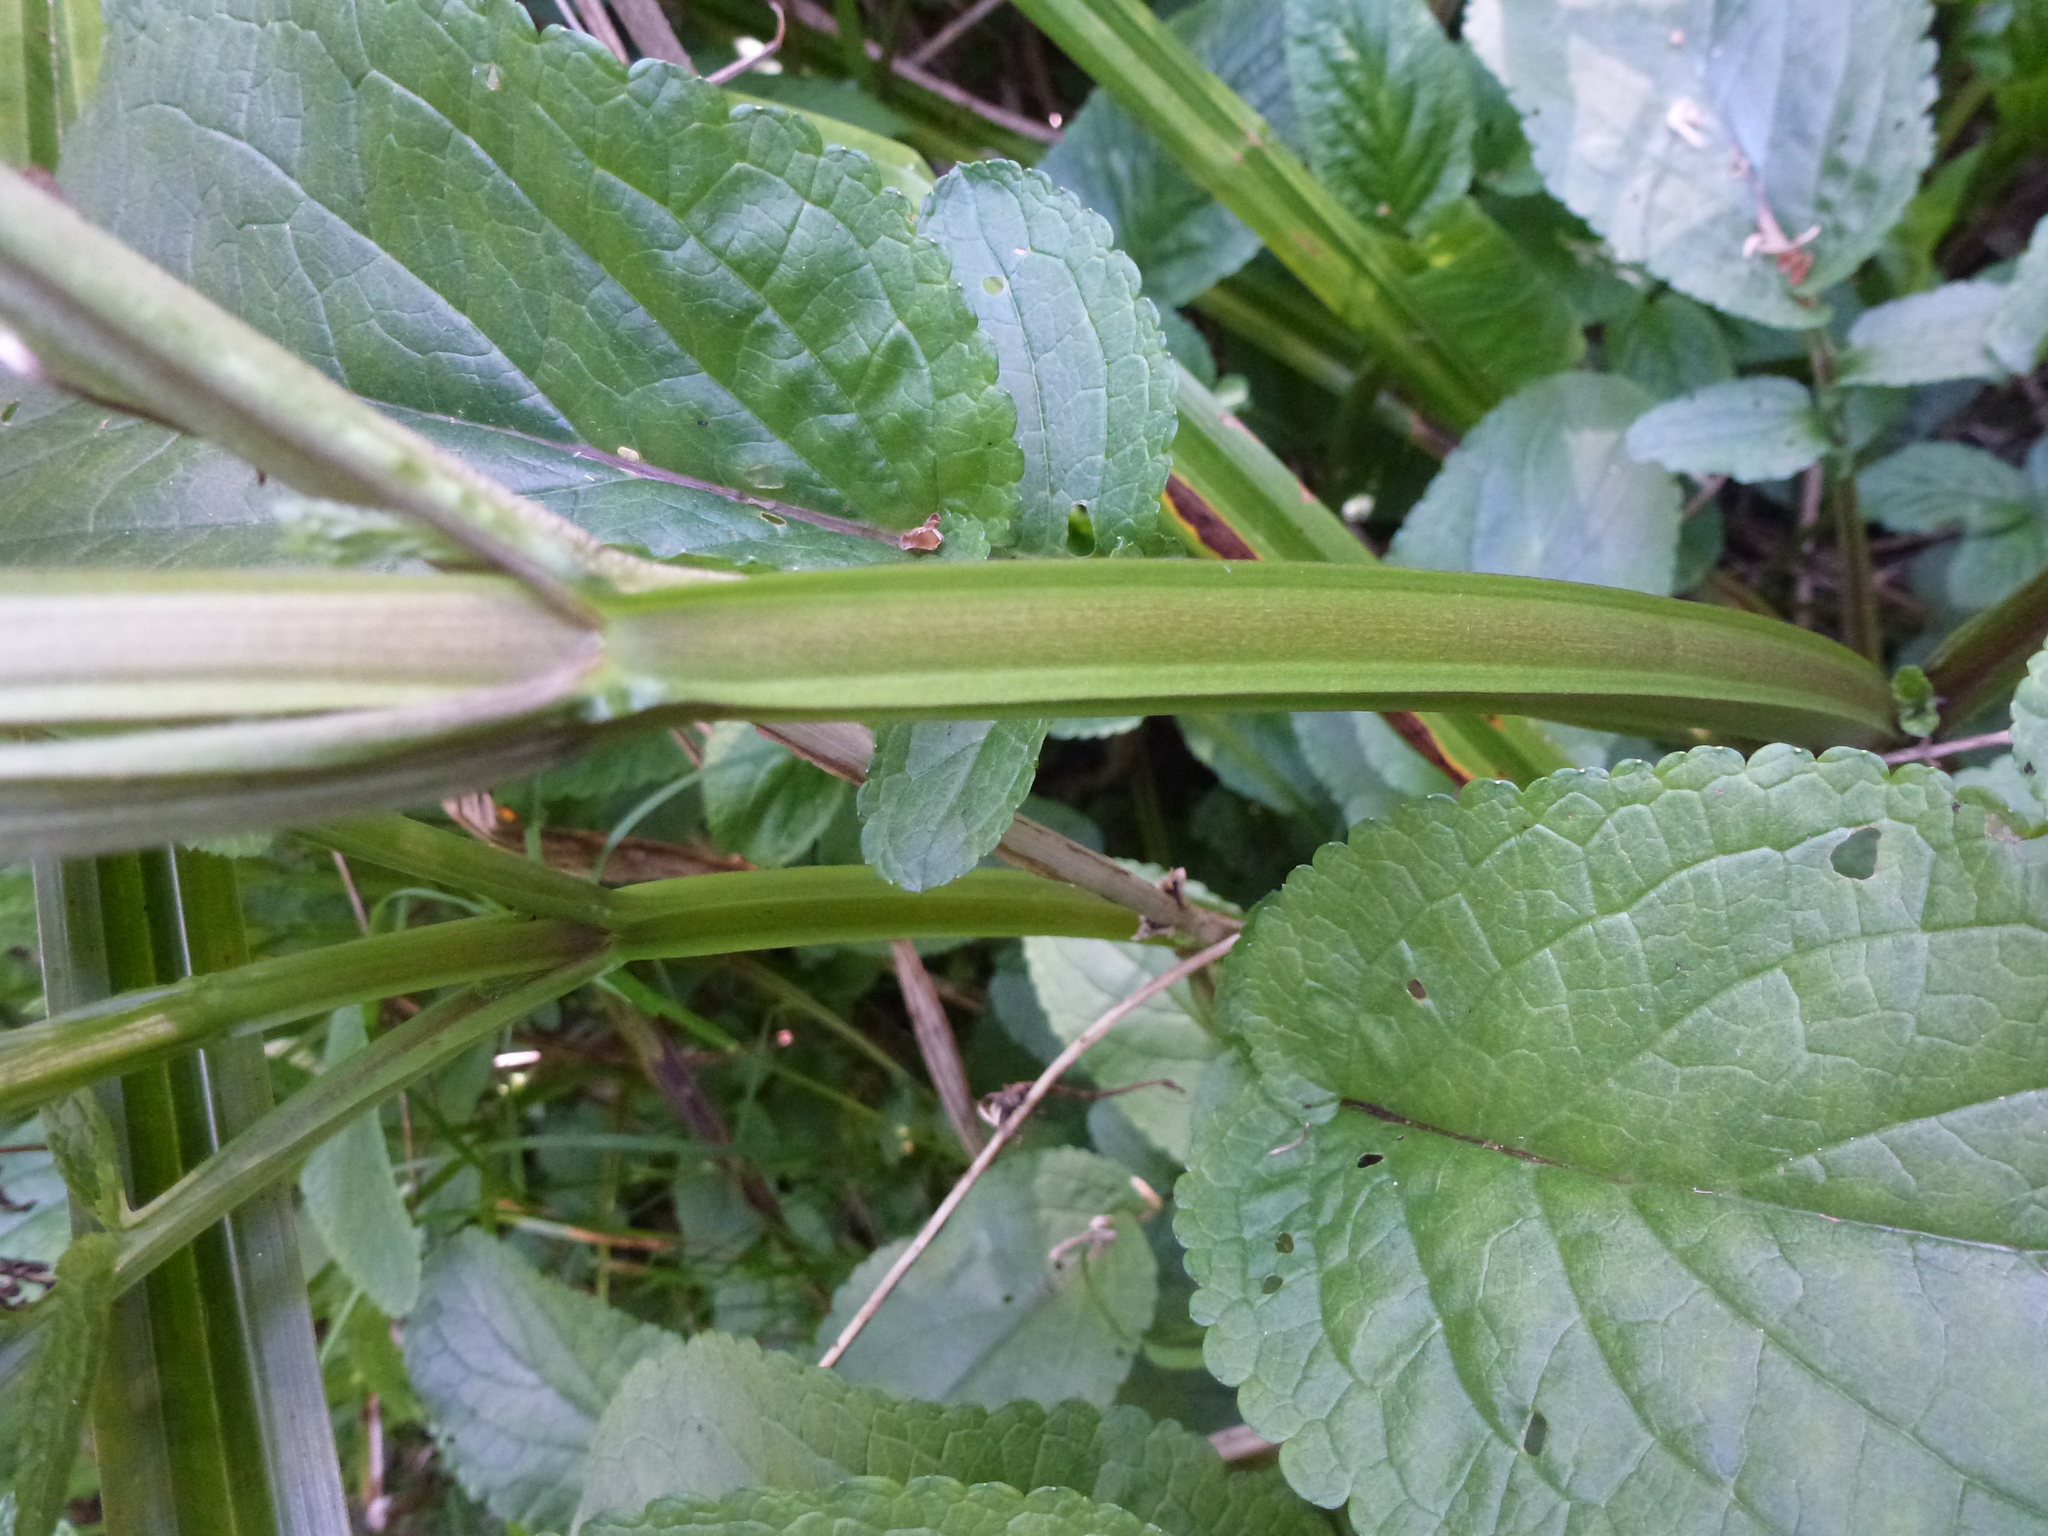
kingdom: Plantae
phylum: Tracheophyta
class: Magnoliopsida
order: Lamiales
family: Scrophulariaceae
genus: Scrophularia
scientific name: Scrophularia auriculata
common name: Water betony
